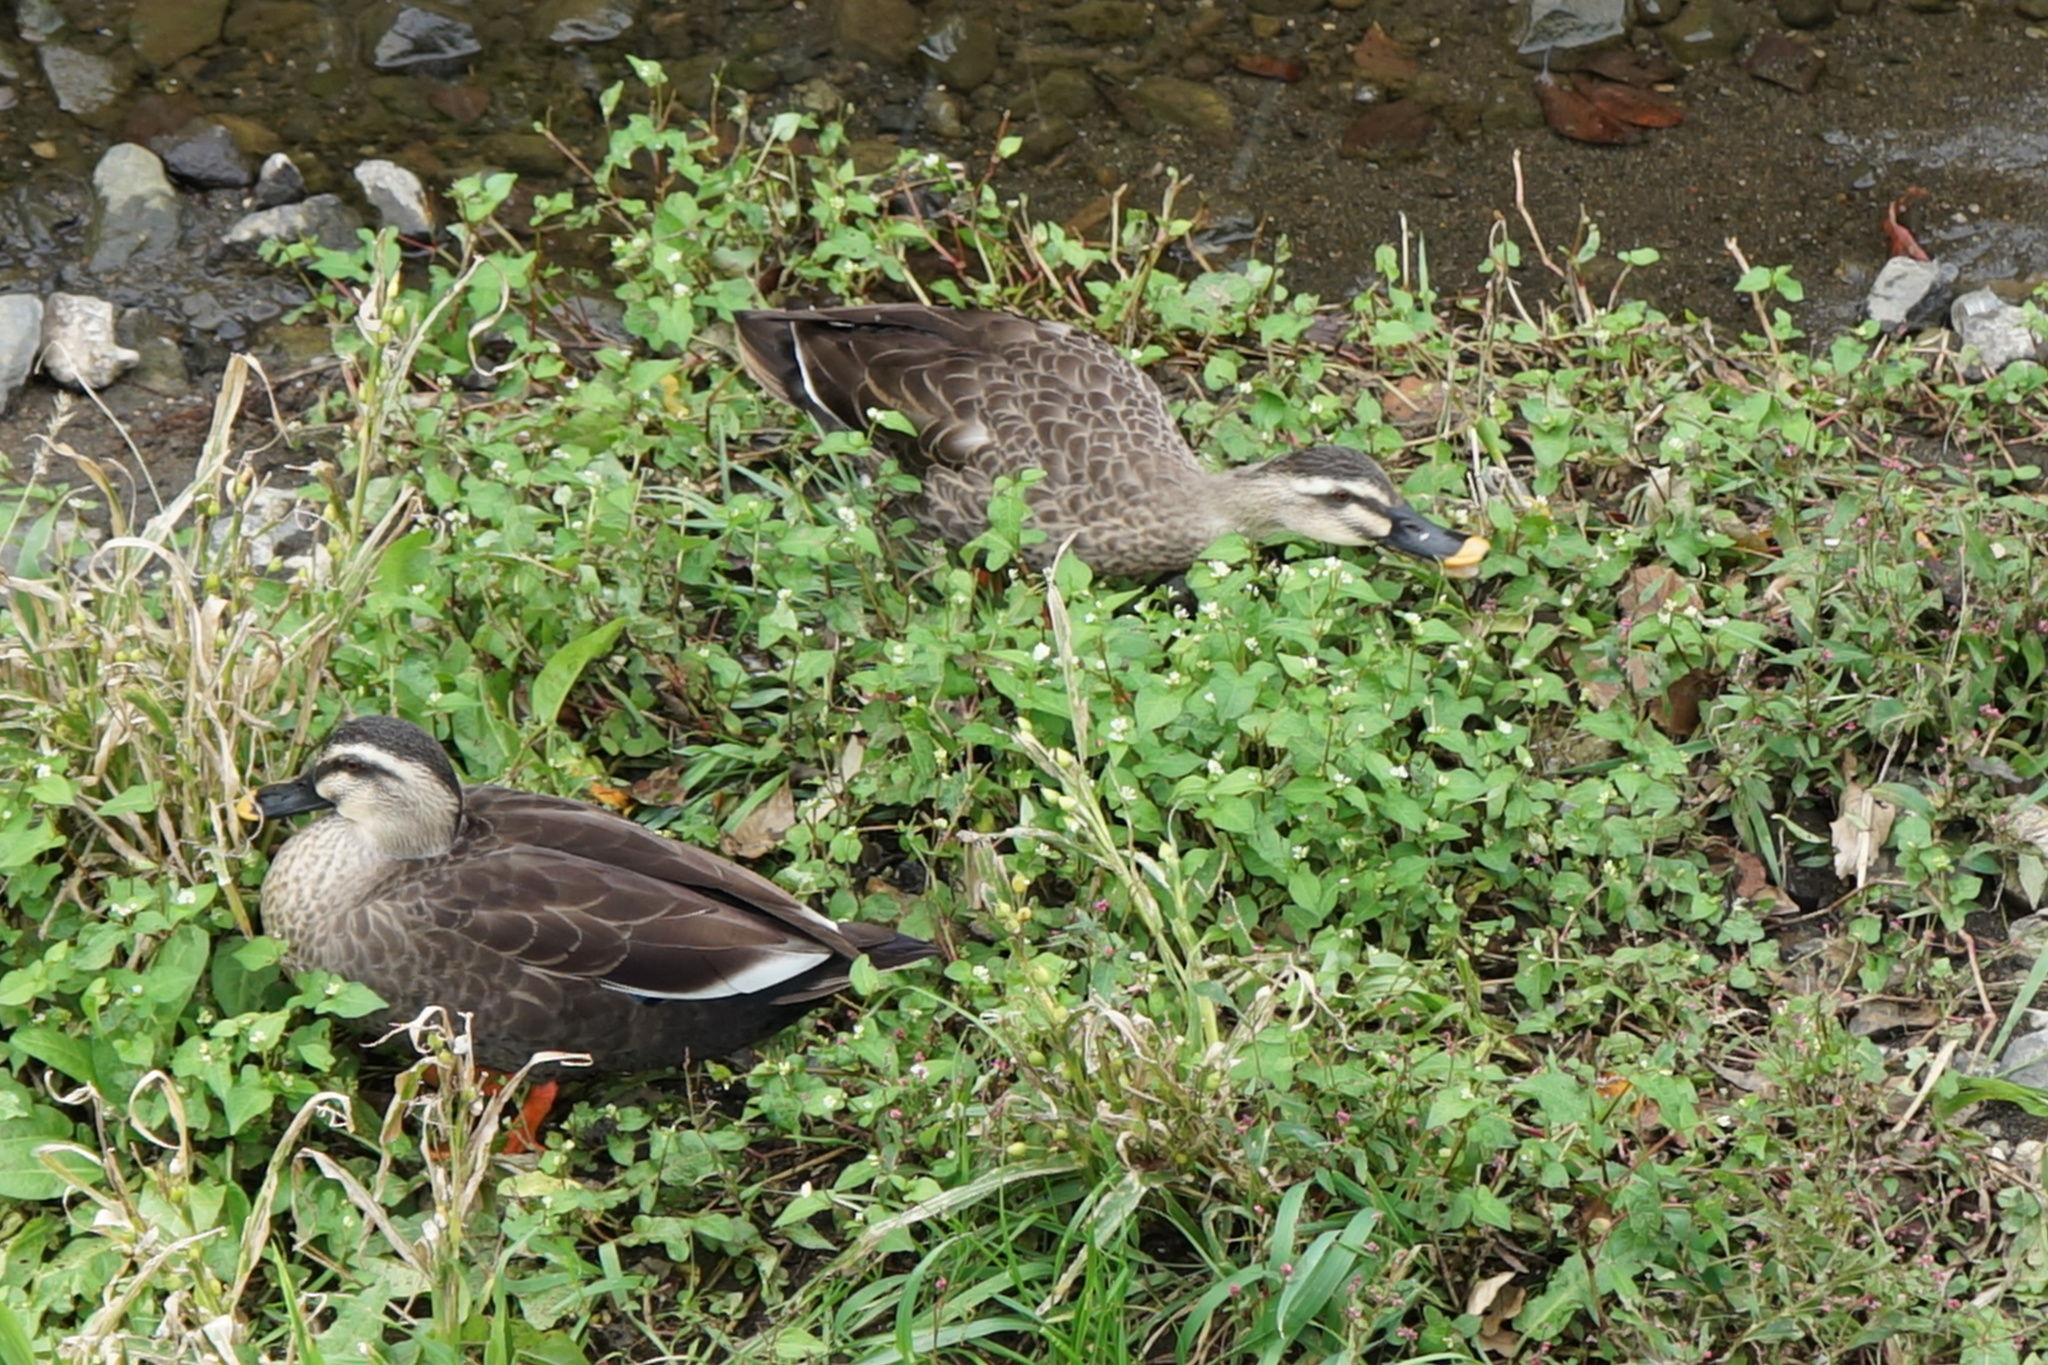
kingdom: Animalia
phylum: Chordata
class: Aves
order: Anseriformes
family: Anatidae
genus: Anas
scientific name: Anas zonorhyncha
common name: Eastern spot-billed duck
